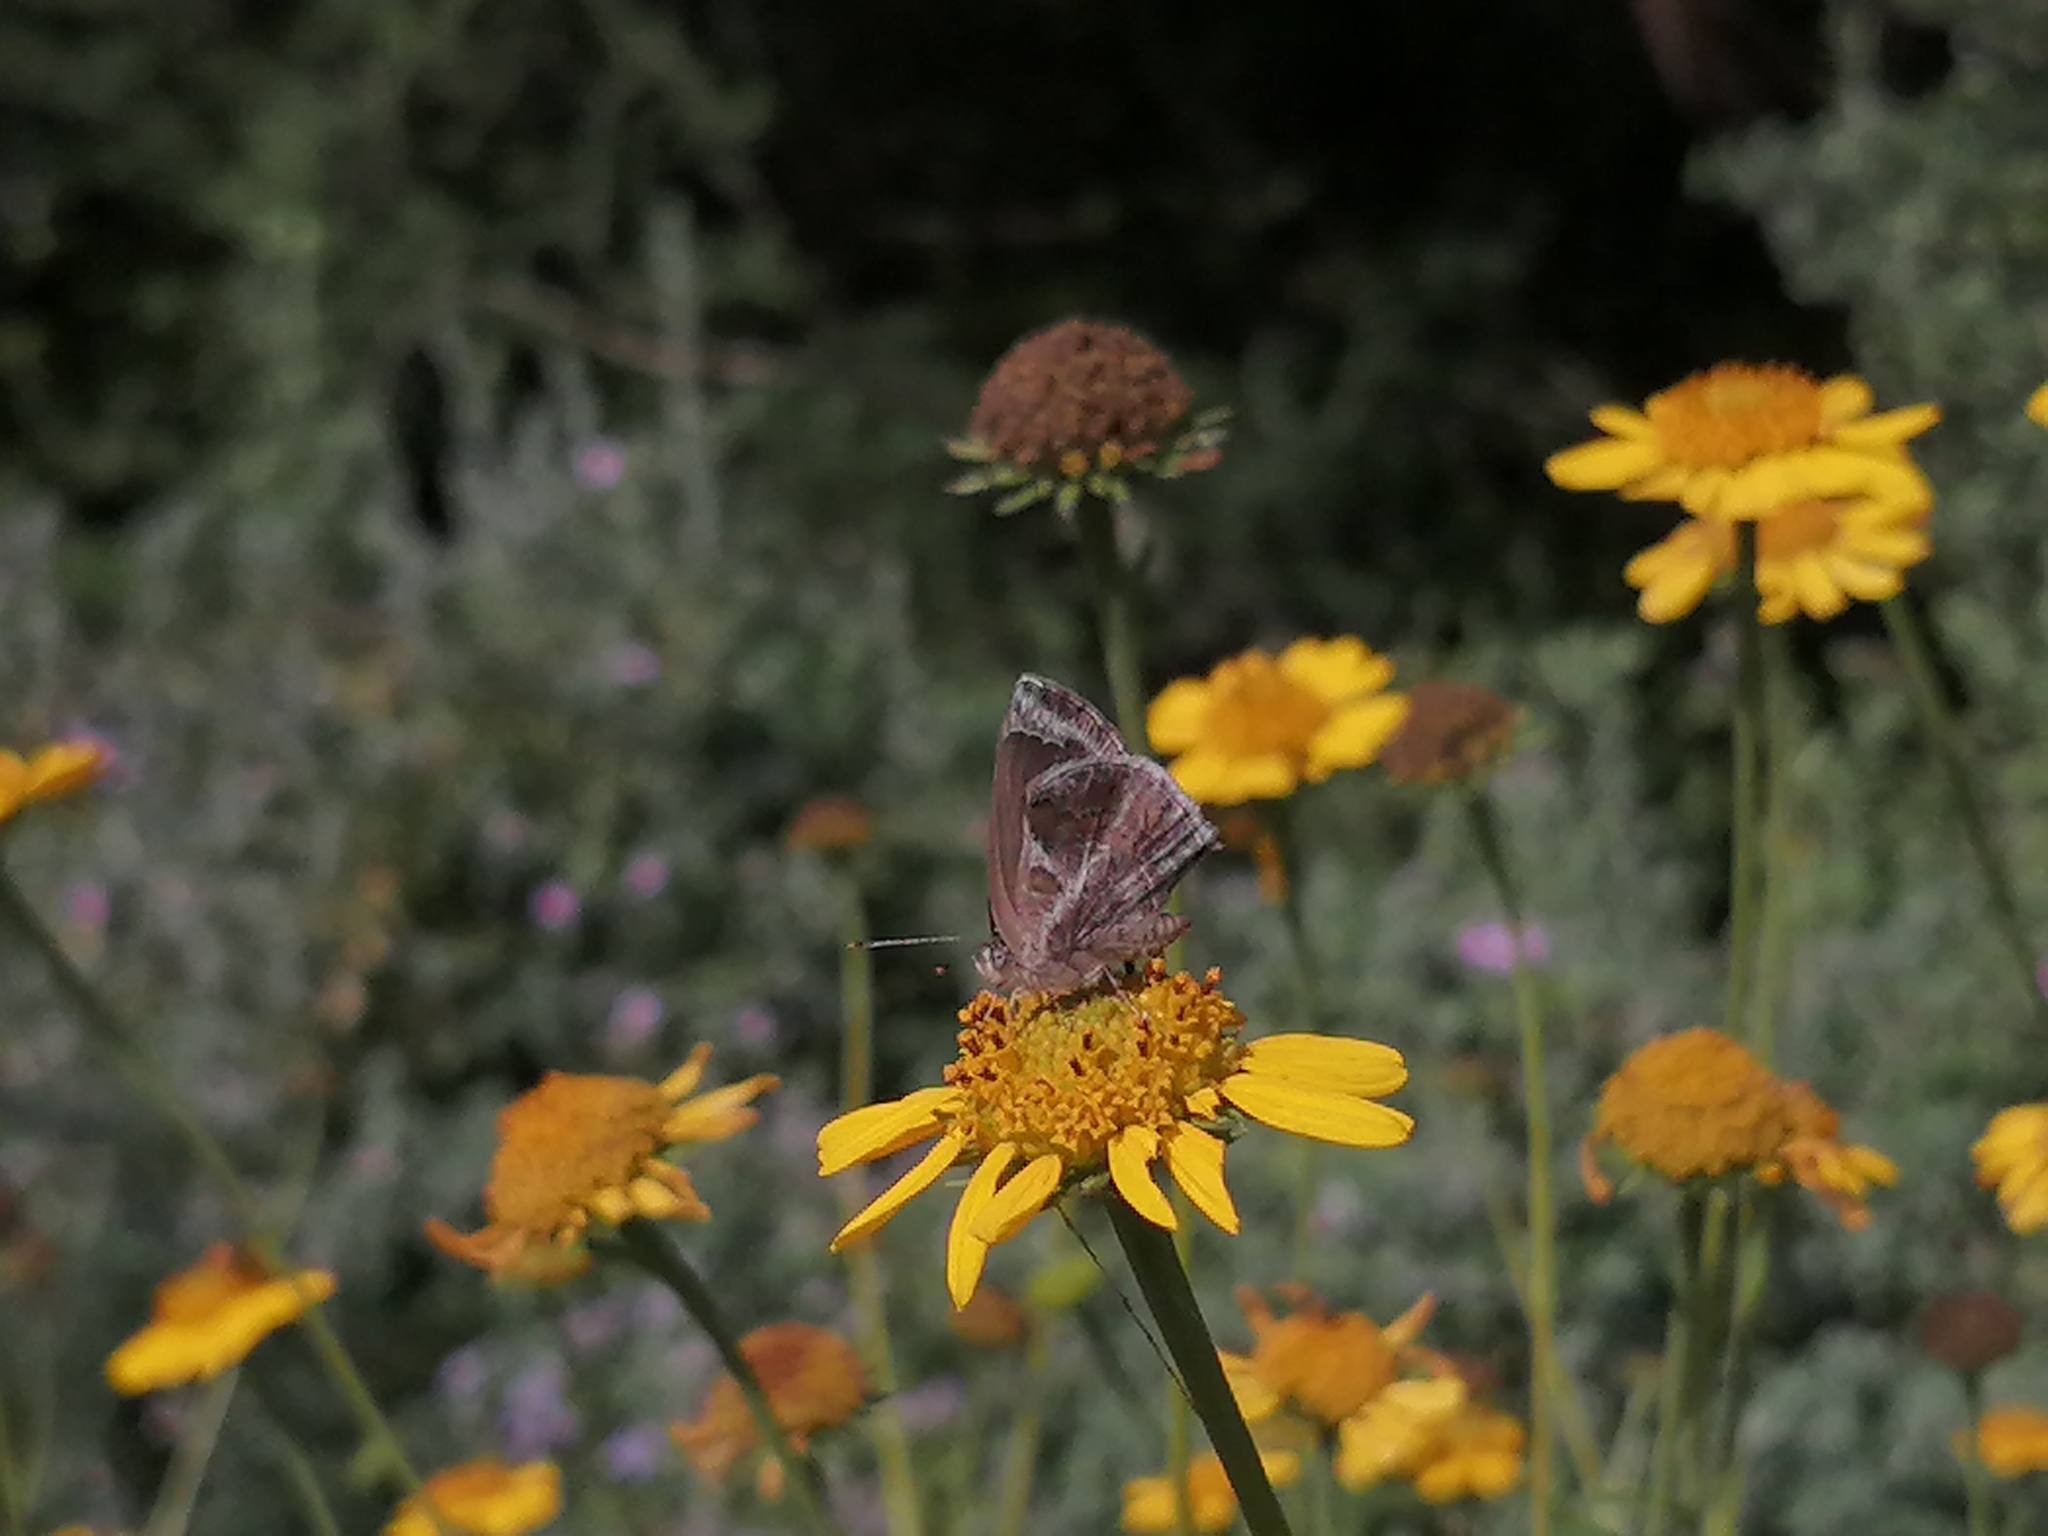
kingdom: Animalia
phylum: Arthropoda
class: Insecta
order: Lepidoptera
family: Lycaenidae
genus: Strymon
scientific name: Strymon bazochii
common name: Lantana scrub-hairstreak
